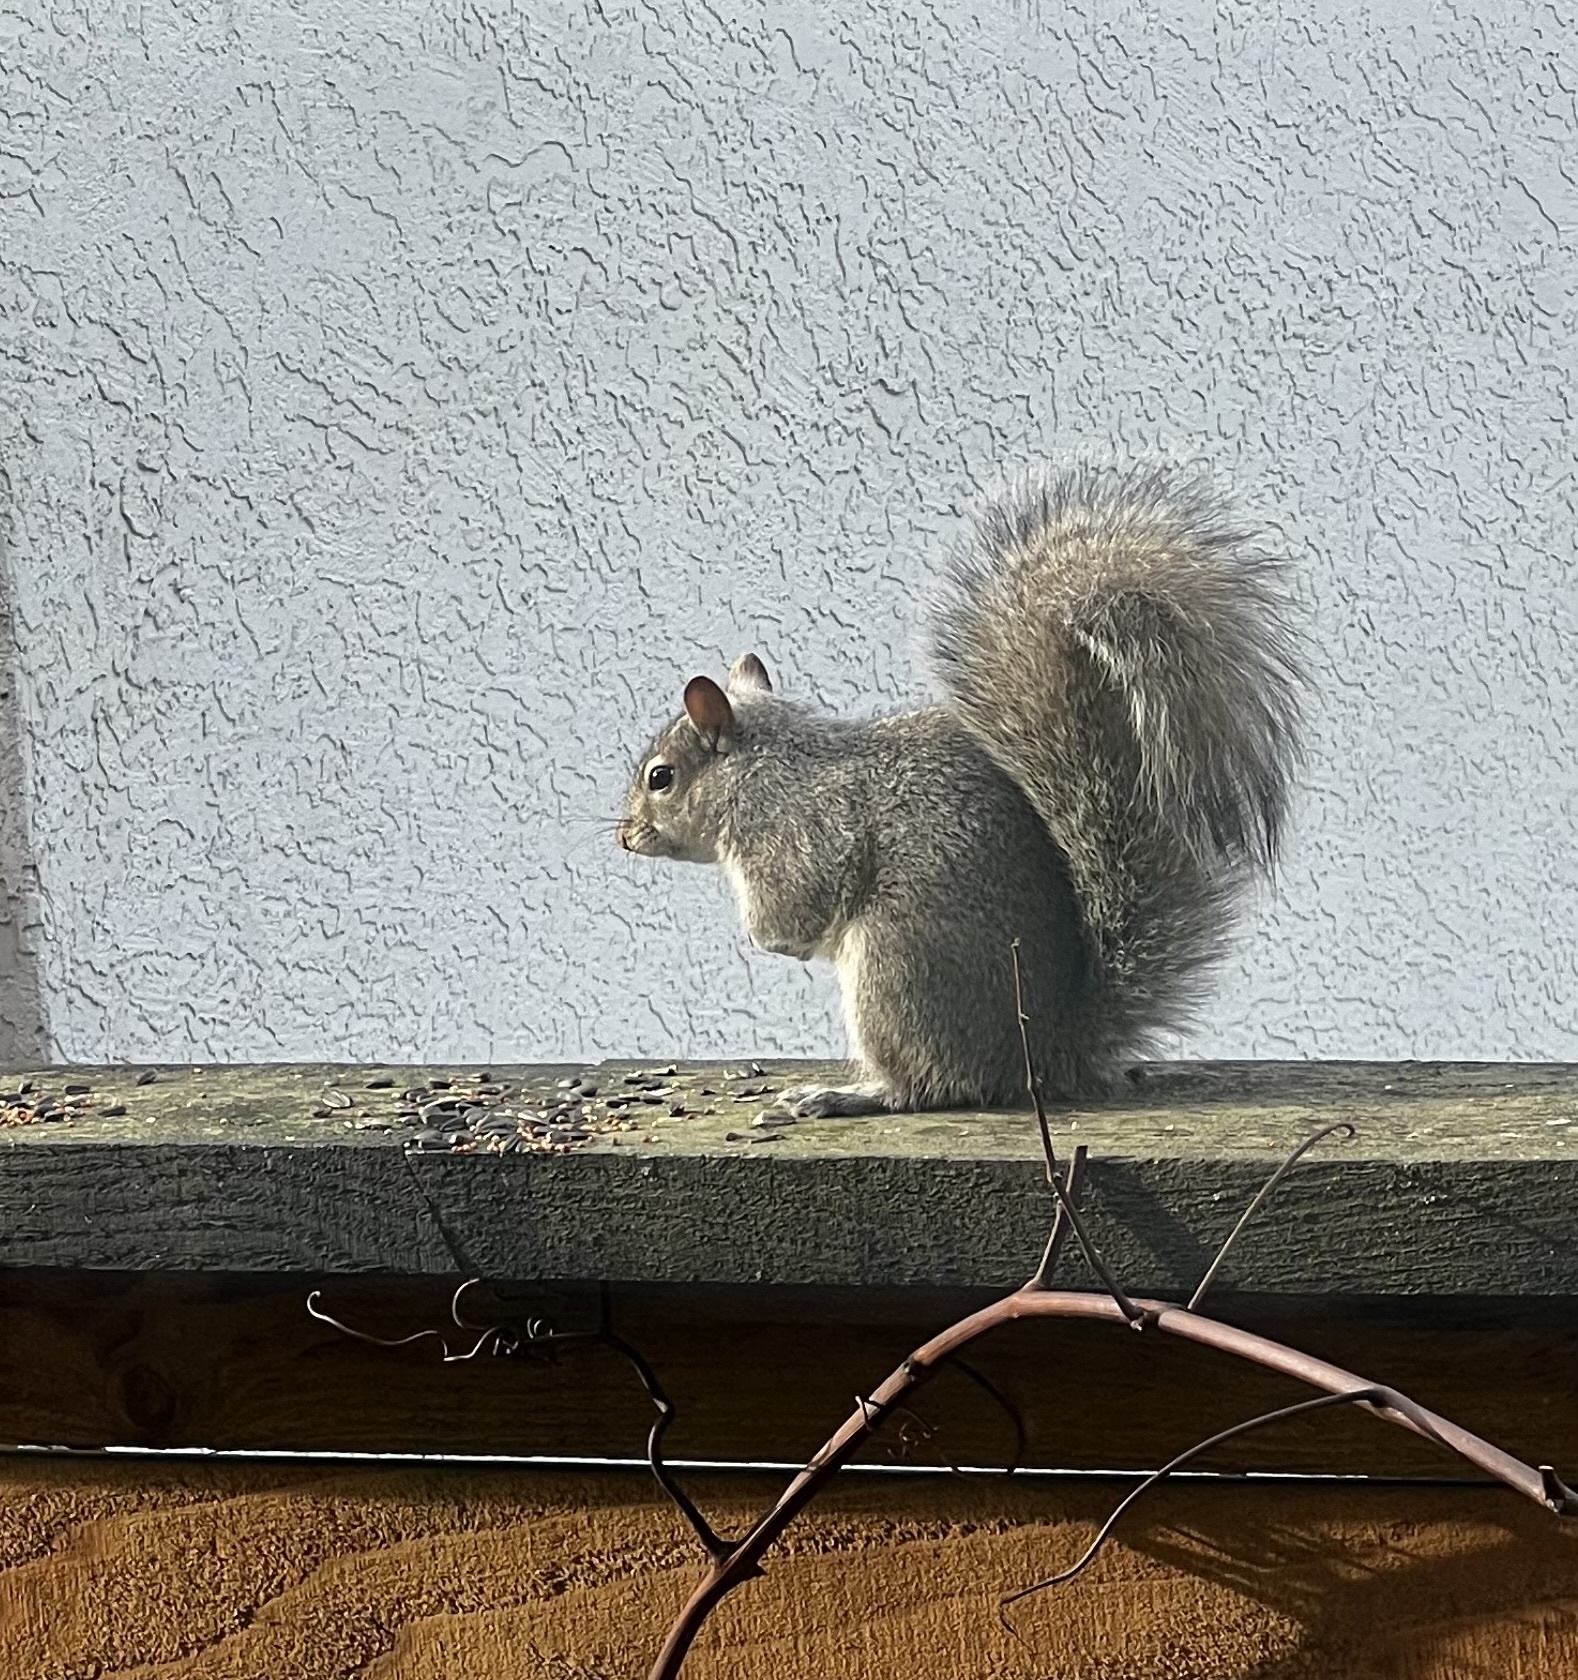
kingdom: Animalia
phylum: Chordata
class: Mammalia
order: Rodentia
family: Sciuridae
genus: Sciurus
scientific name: Sciurus carolinensis
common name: Eastern gray squirrel
